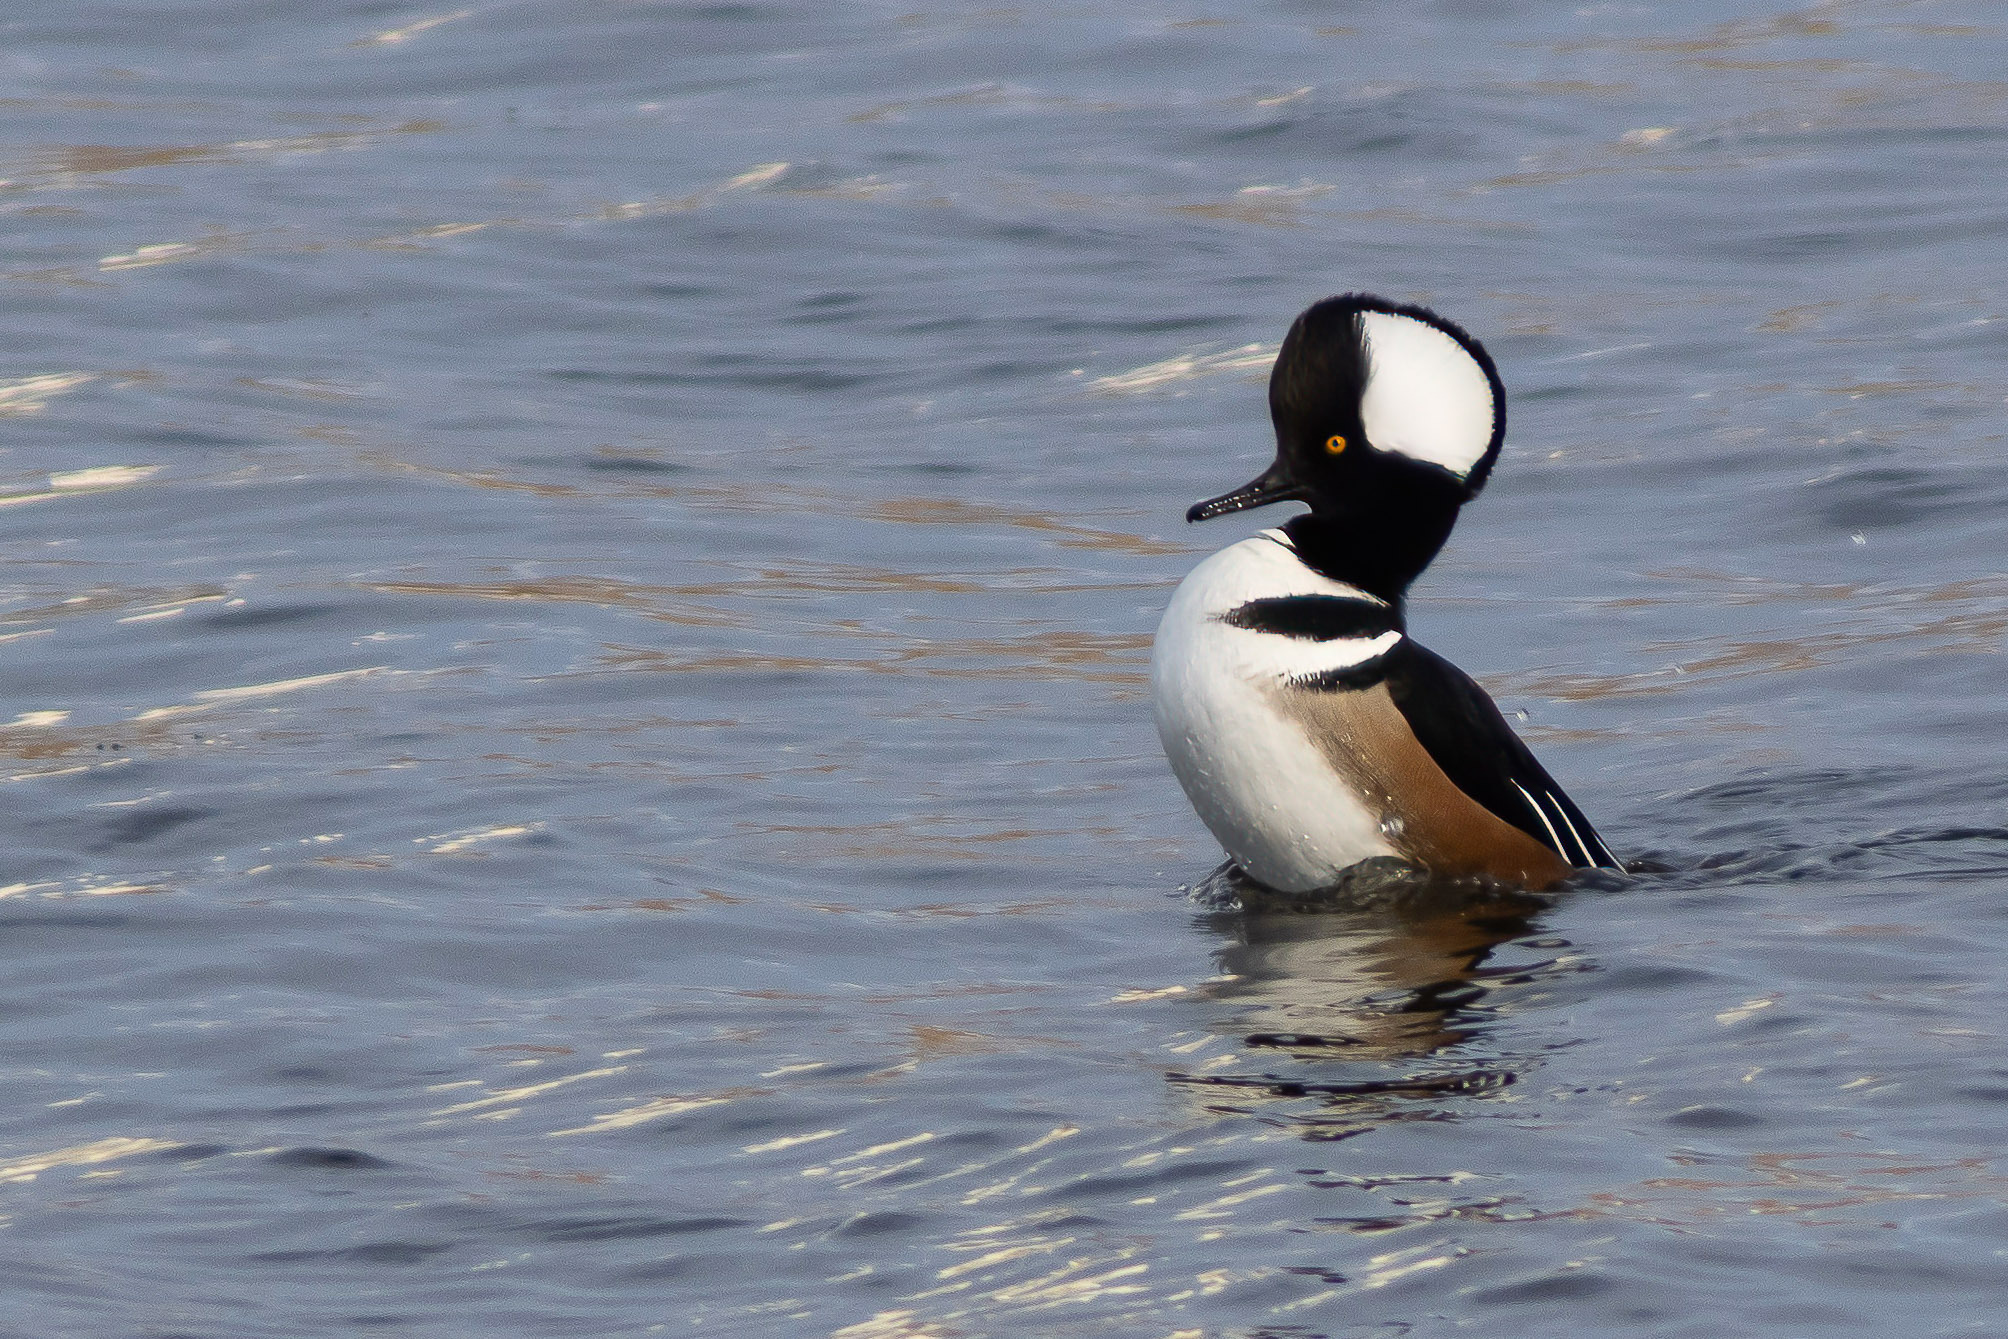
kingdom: Animalia
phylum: Chordata
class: Aves
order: Anseriformes
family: Anatidae
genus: Lophodytes
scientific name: Lophodytes cucullatus
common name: Hooded merganser
